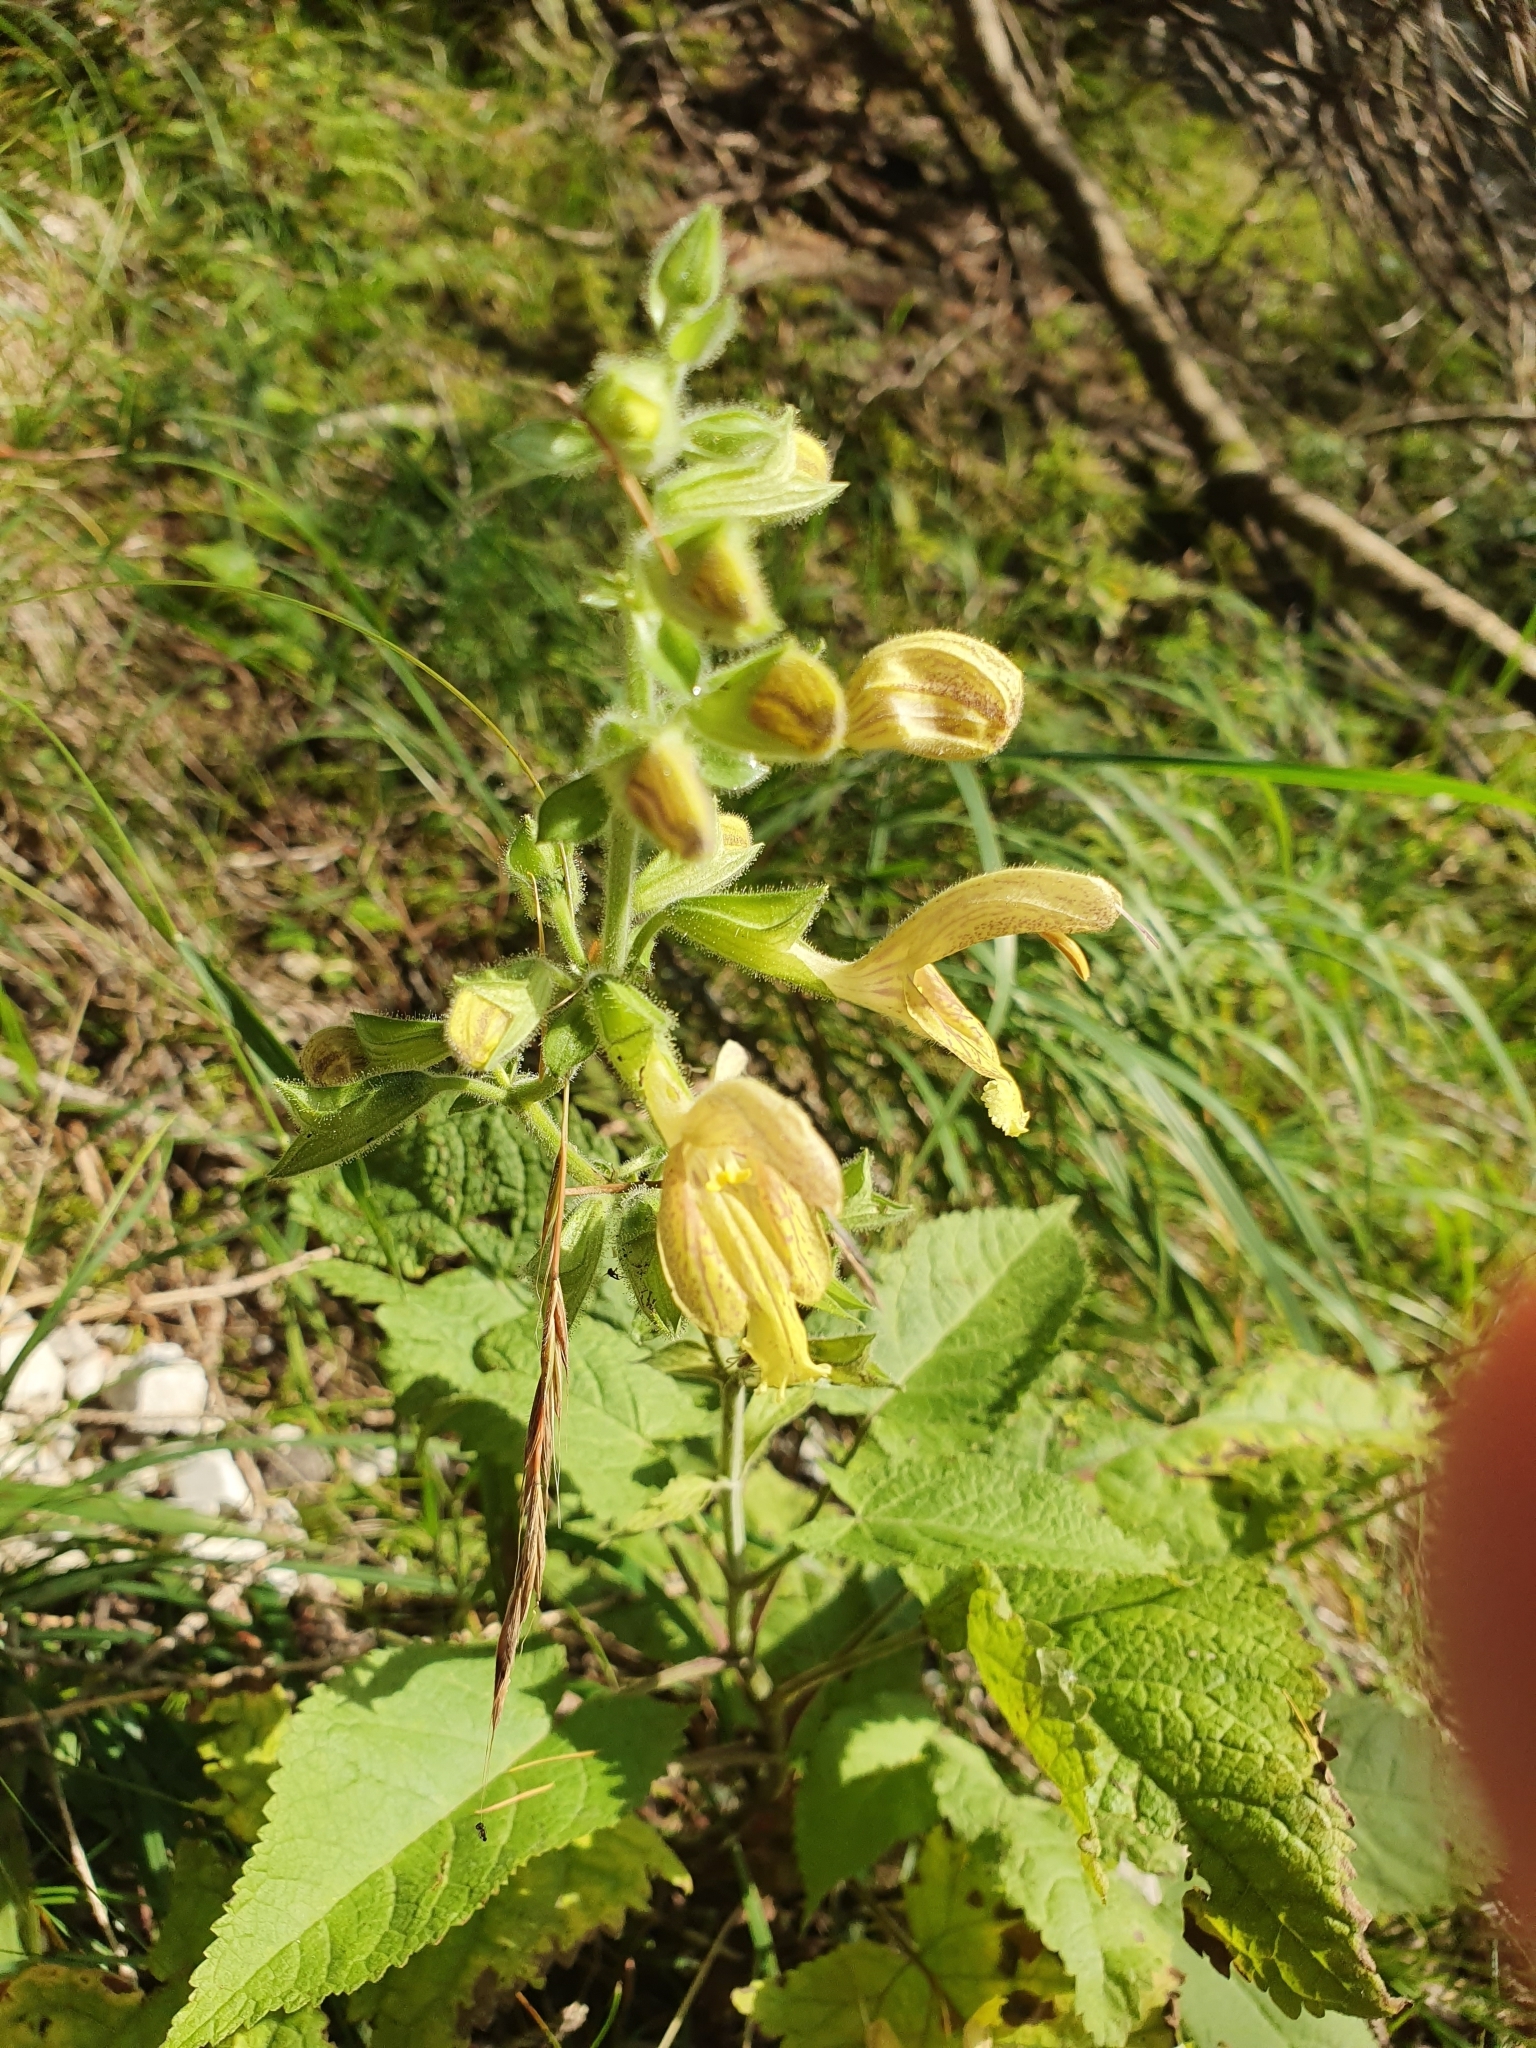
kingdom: Plantae
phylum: Tracheophyta
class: Magnoliopsida
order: Lamiales
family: Lamiaceae
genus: Salvia
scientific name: Salvia glutinosa
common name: Sticky clary
